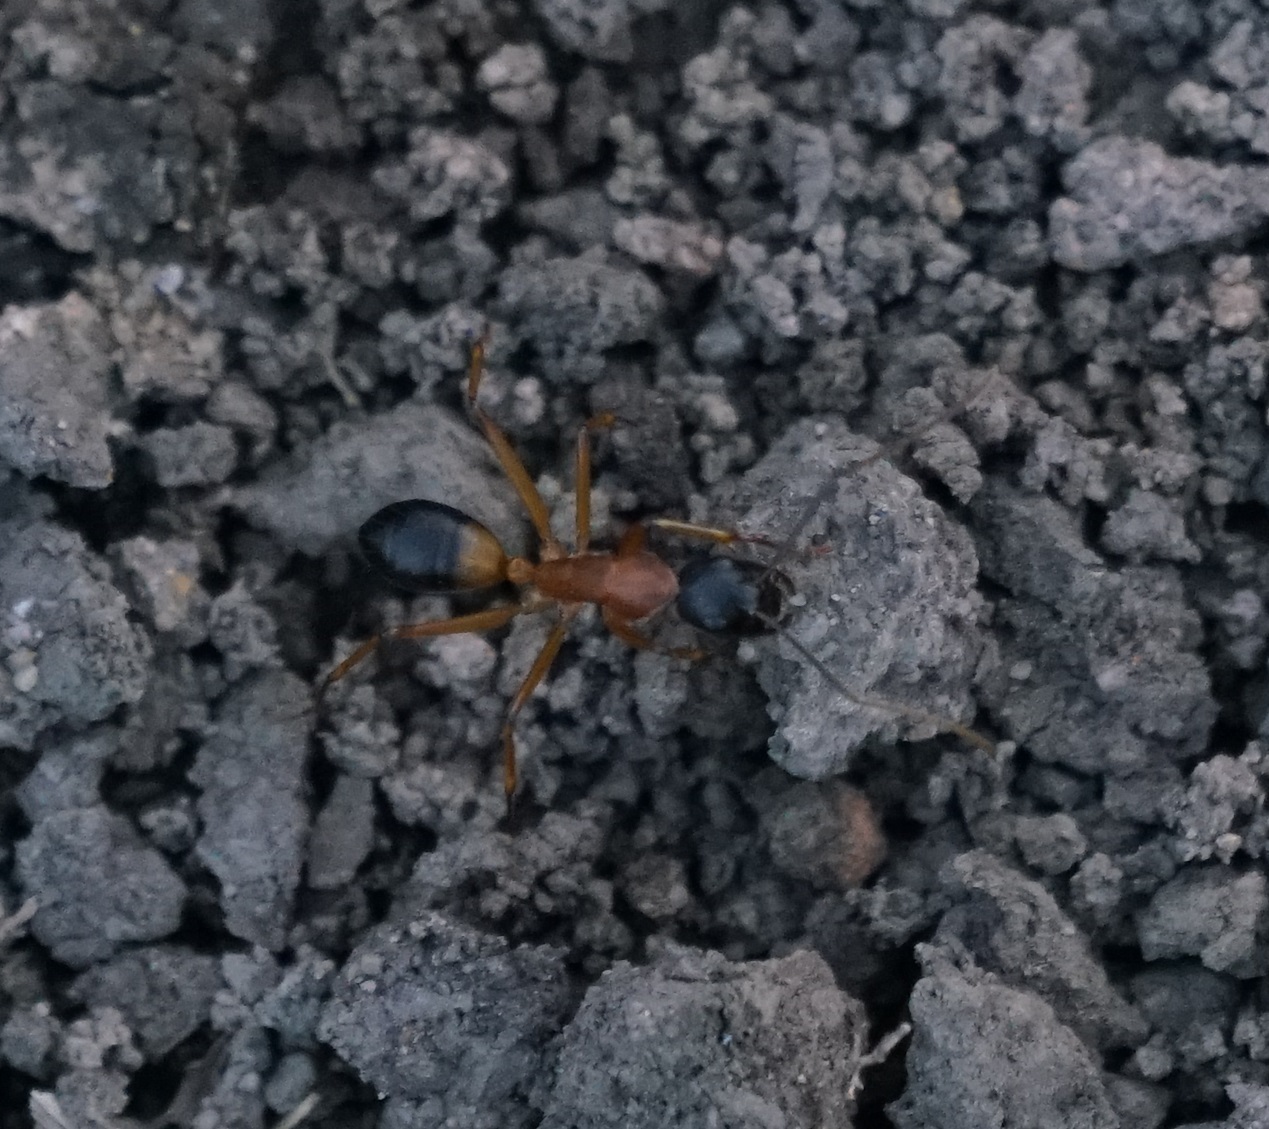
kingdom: Animalia
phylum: Arthropoda
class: Insecta
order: Hymenoptera
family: Formicidae
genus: Camponotus
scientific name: Camponotus consobrinus
